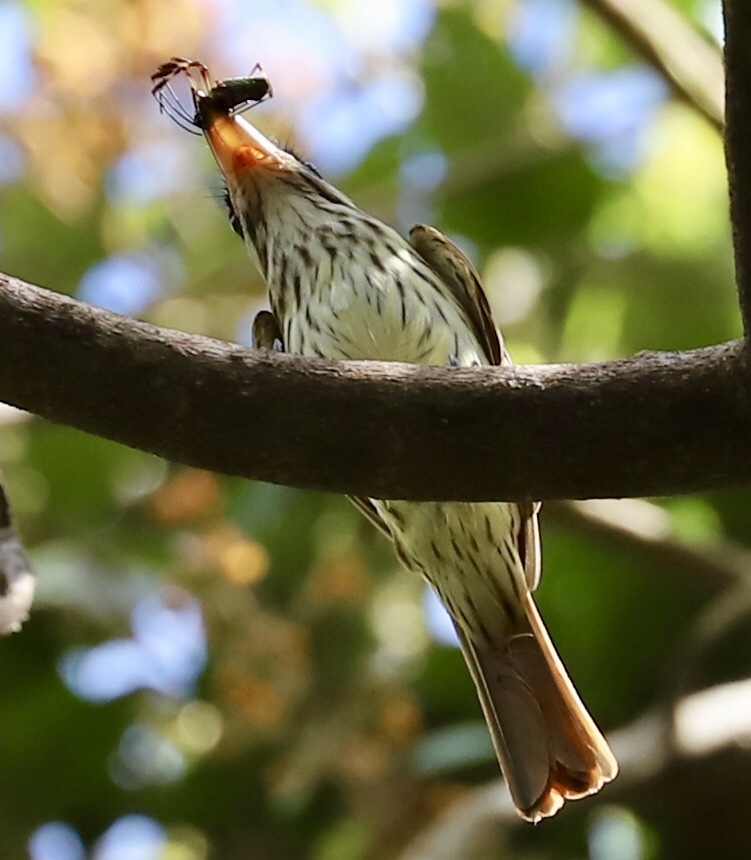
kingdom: Animalia
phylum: Chordata
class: Aves
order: Passeriformes
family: Tyrannidae
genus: Myiodynastes
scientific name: Myiodynastes maculatus
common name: Streaked flycatcher
